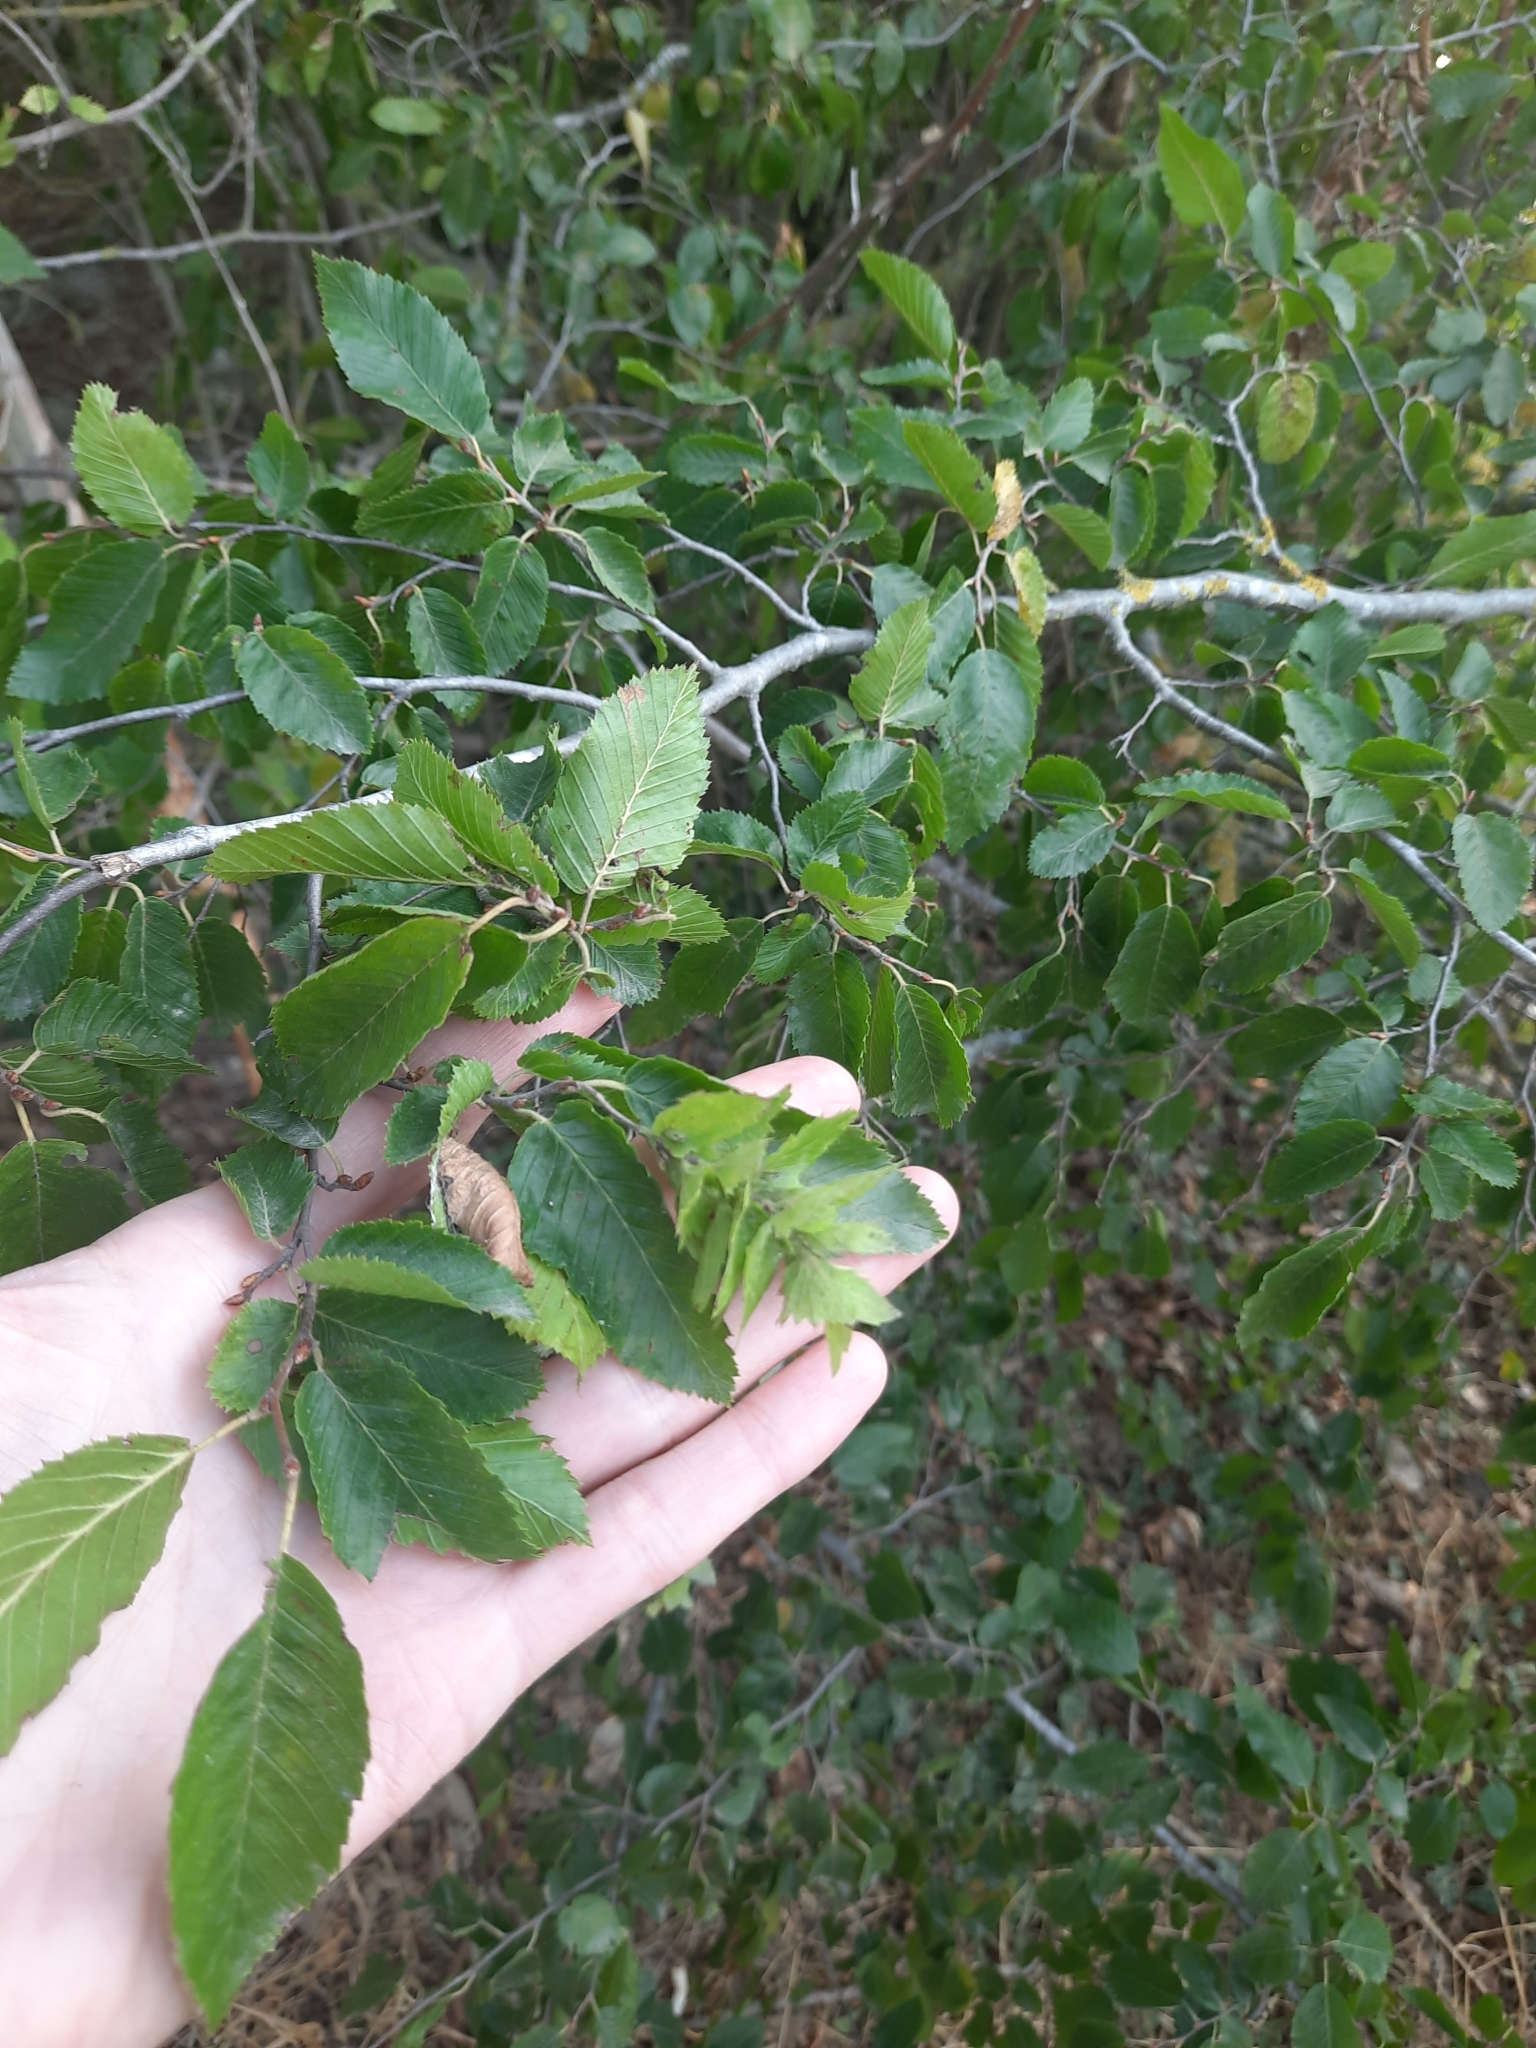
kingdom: Plantae
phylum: Tracheophyta
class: Magnoliopsida
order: Fagales
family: Betulaceae
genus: Carpinus
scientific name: Carpinus orientalis
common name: Eastern hornbeam
